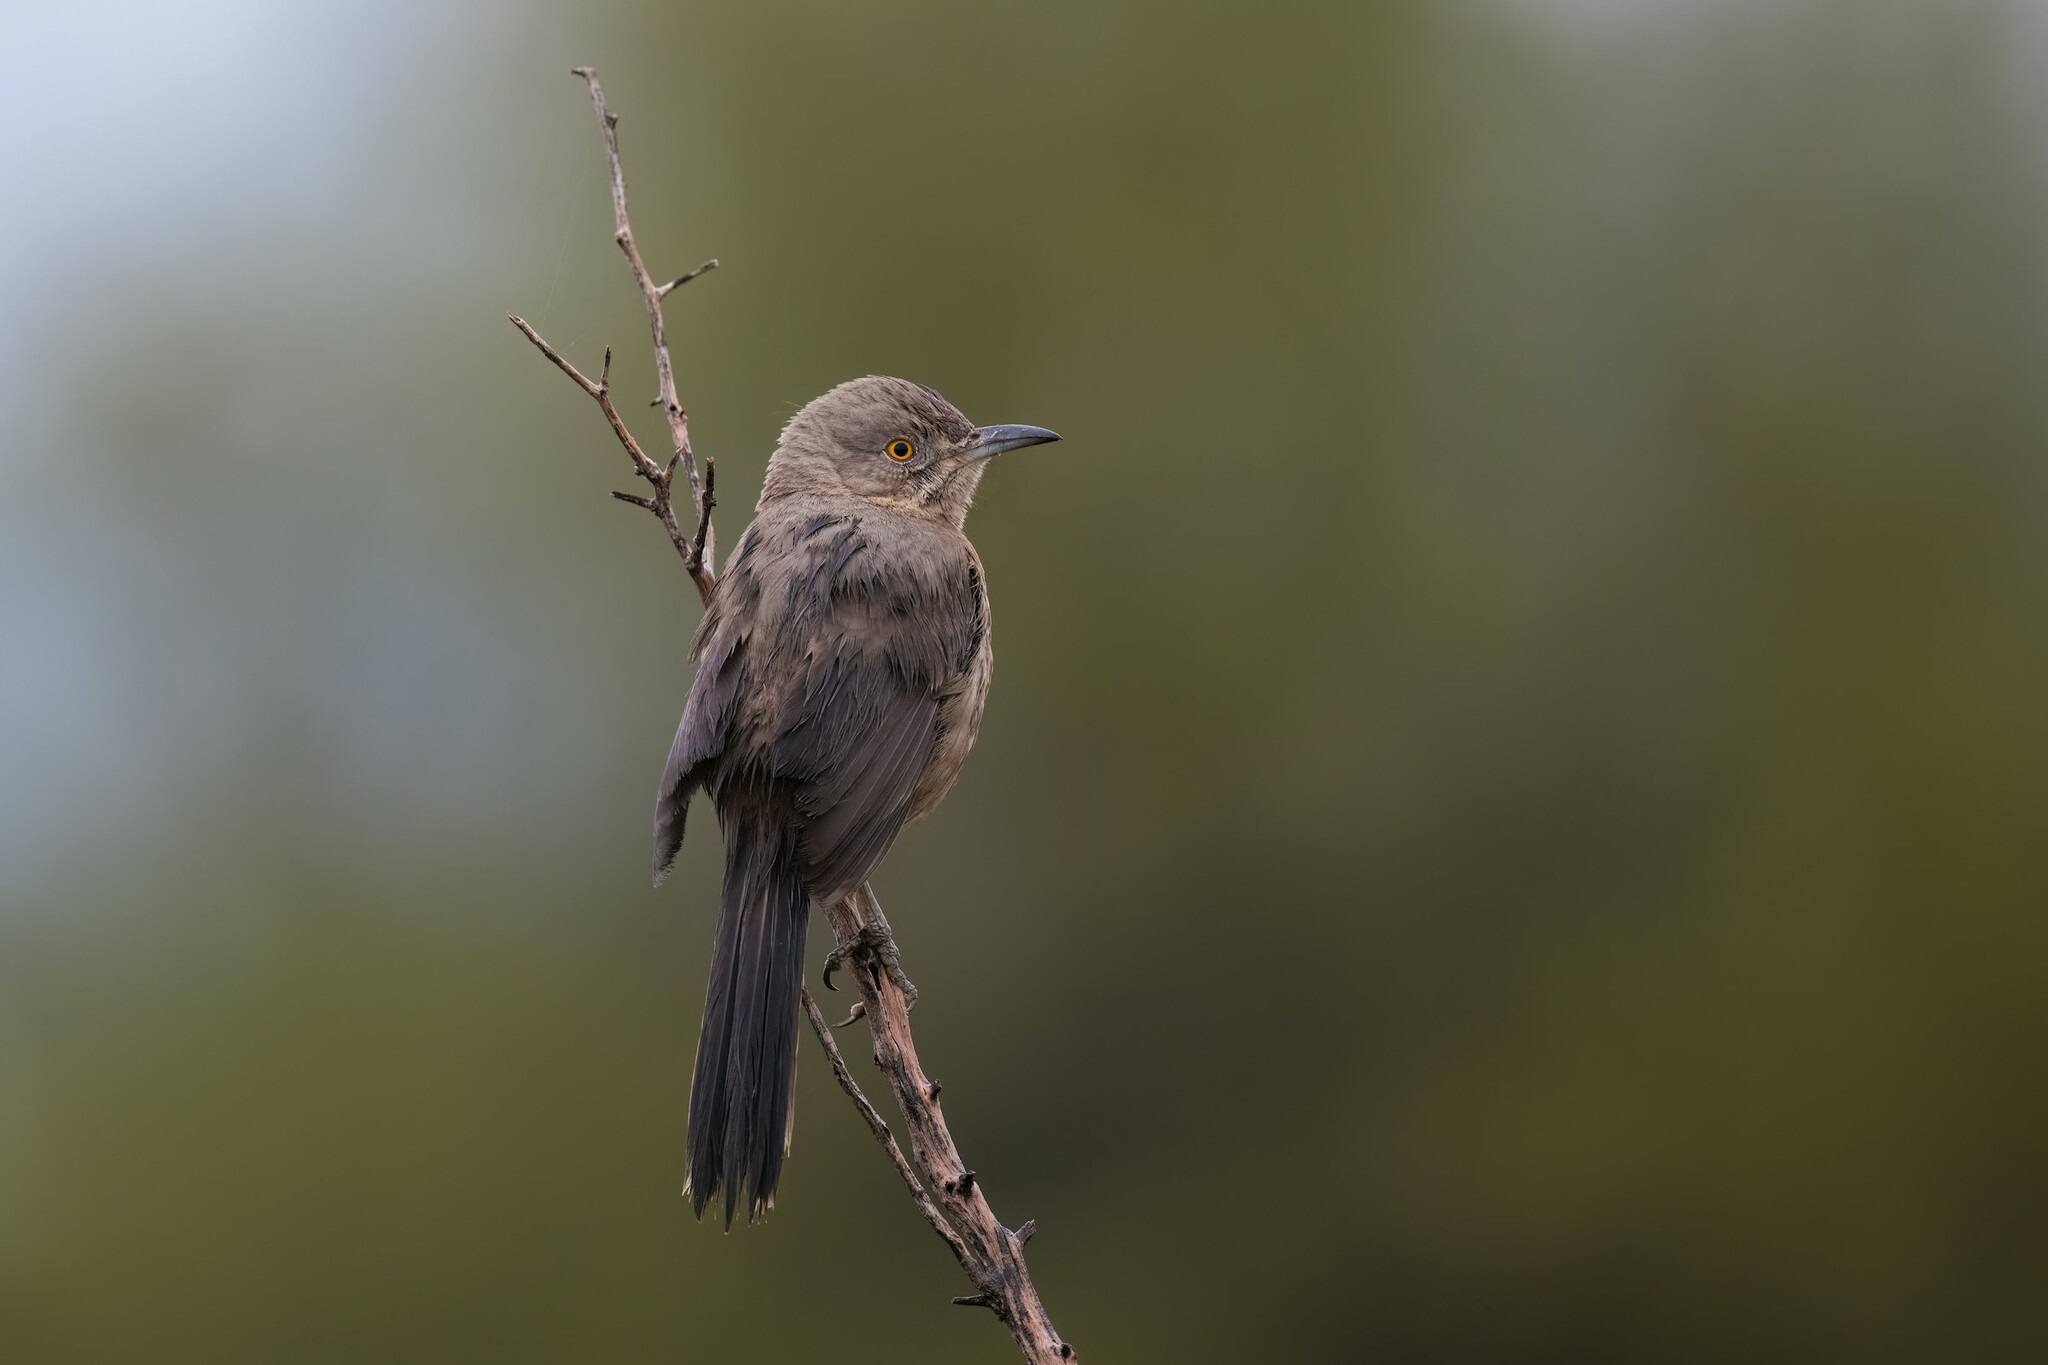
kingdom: Animalia
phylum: Chordata
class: Aves
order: Passeriformes
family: Mimidae
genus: Toxostoma
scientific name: Toxostoma bendirei
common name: Bendire's thrasher
